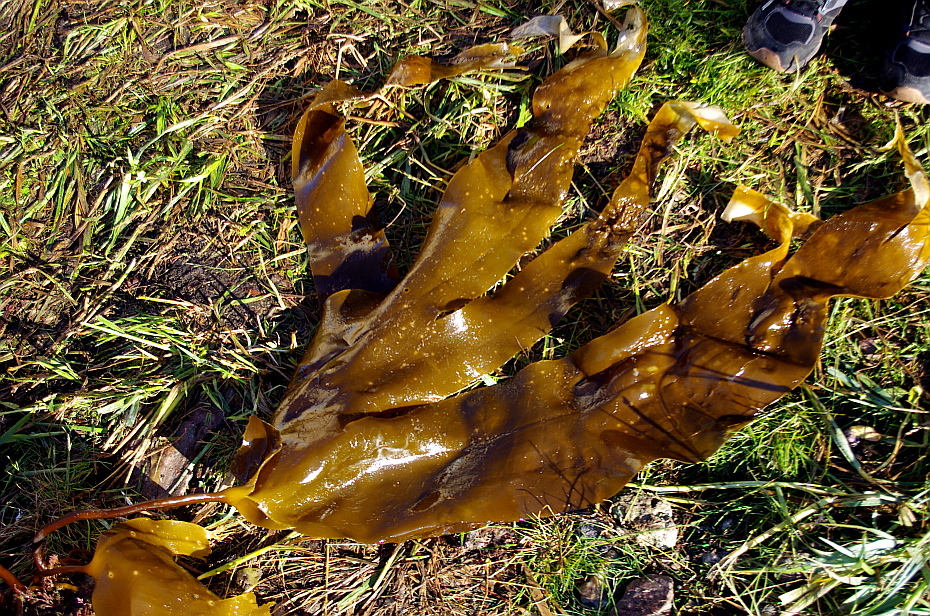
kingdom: Chromista
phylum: Ochrophyta
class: Phaeophyceae
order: Laminariales
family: Laminariaceae
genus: Laminaria
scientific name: Laminaria digitata
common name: Oarweed
